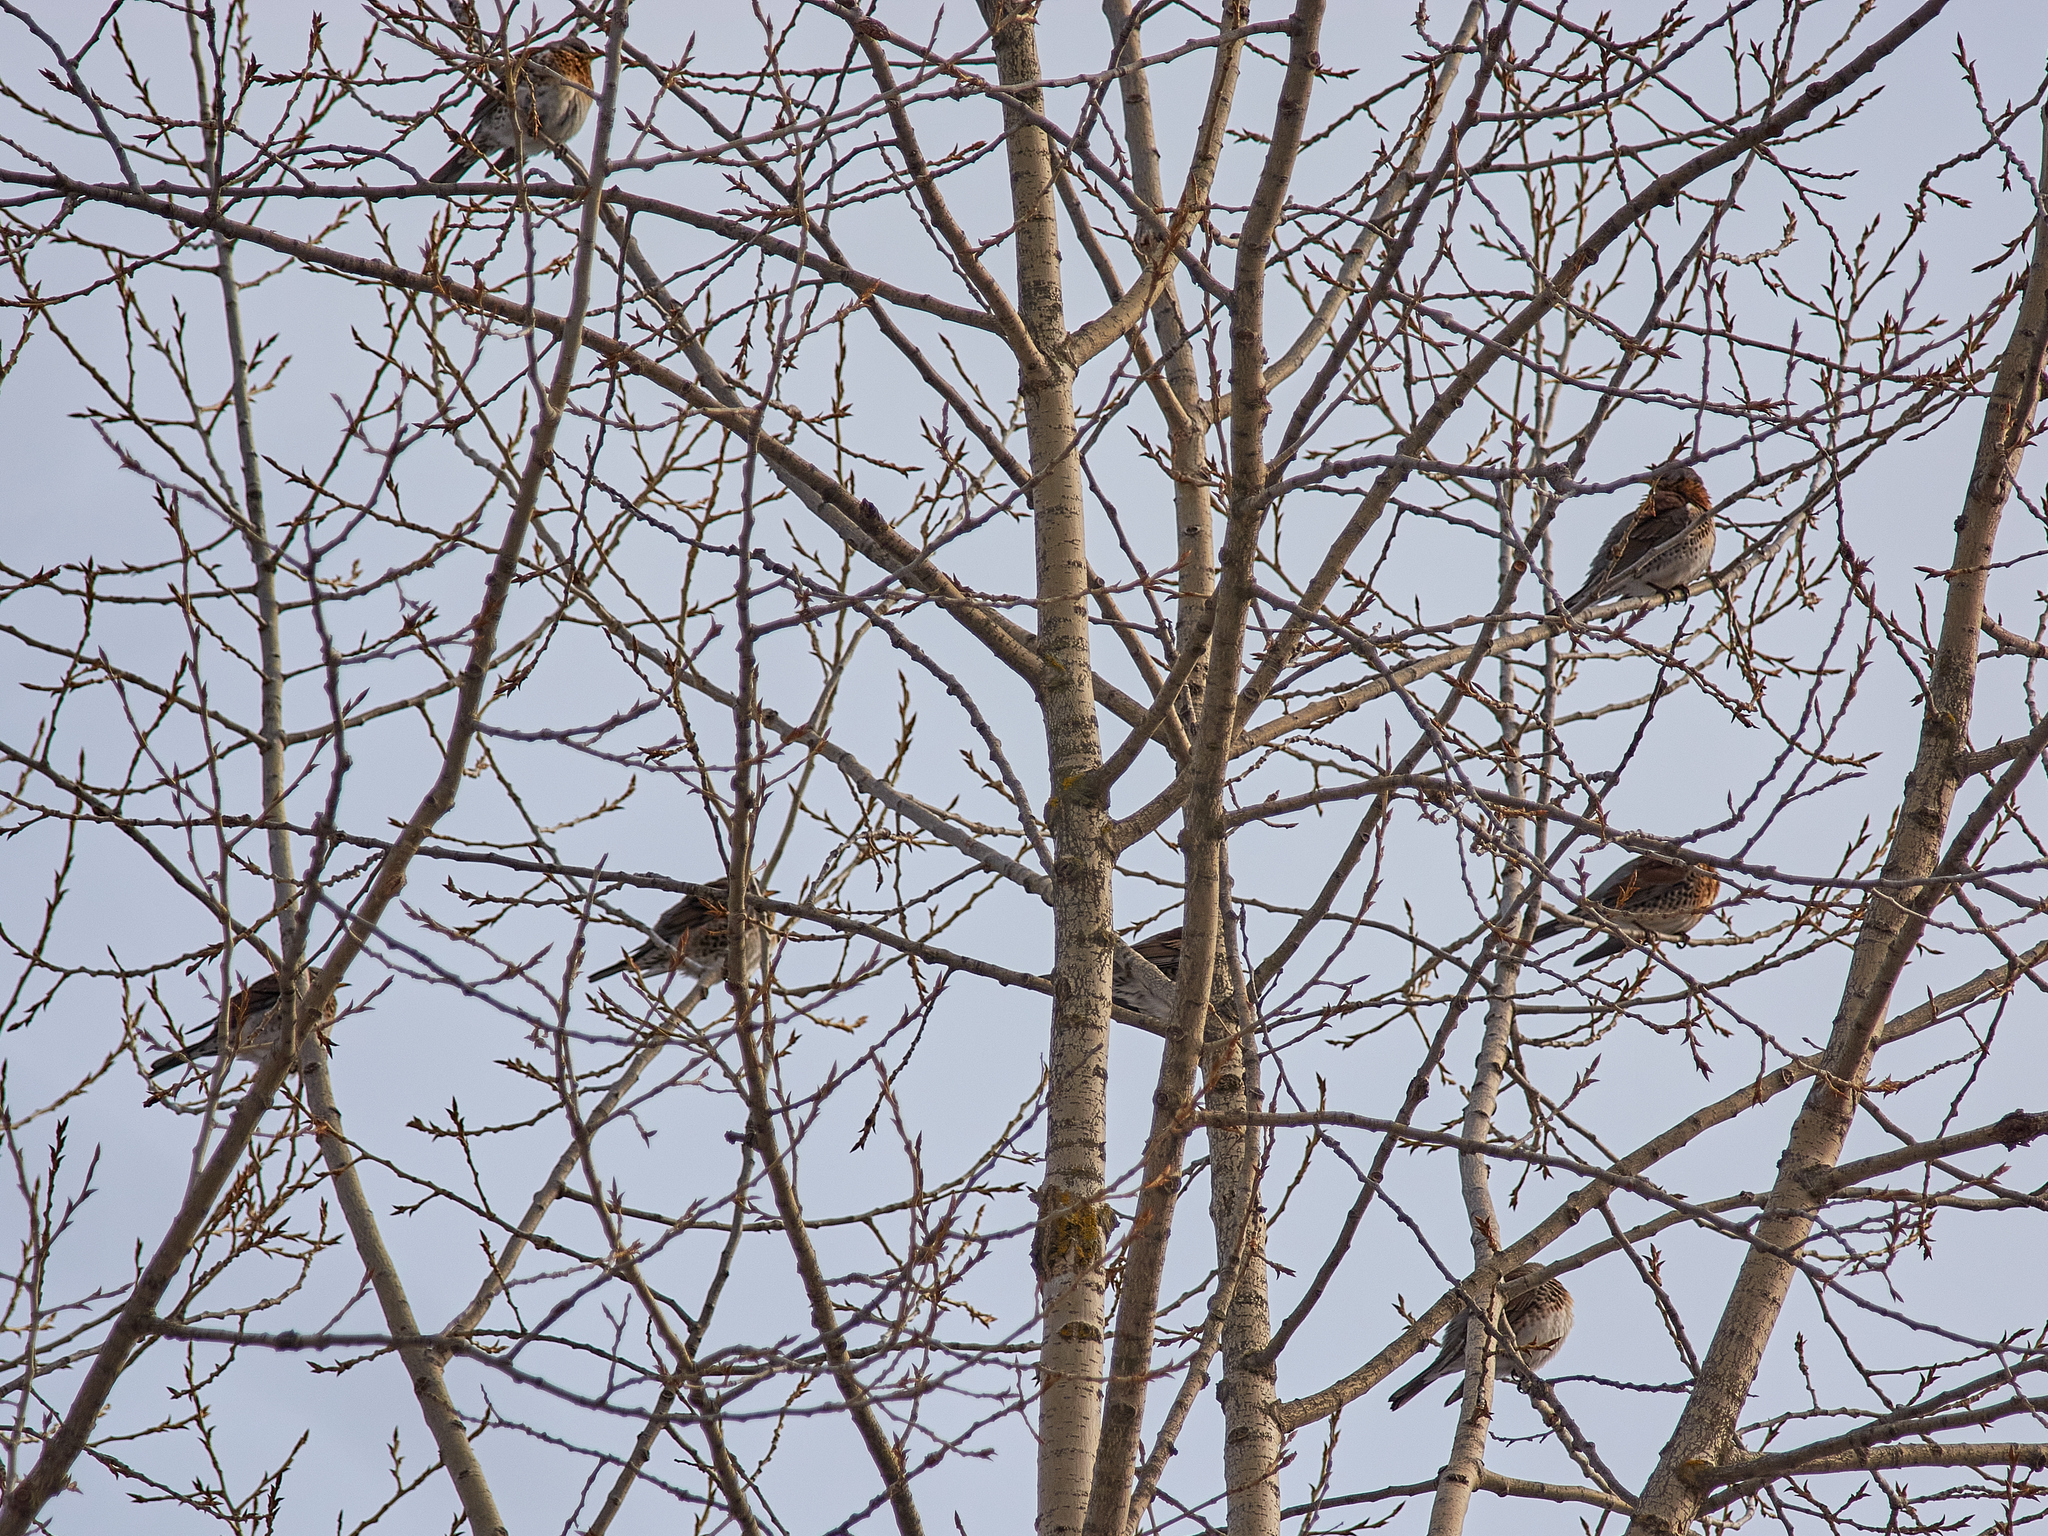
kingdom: Animalia
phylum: Chordata
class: Aves
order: Passeriformes
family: Turdidae
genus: Turdus
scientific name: Turdus pilaris
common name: Fieldfare
